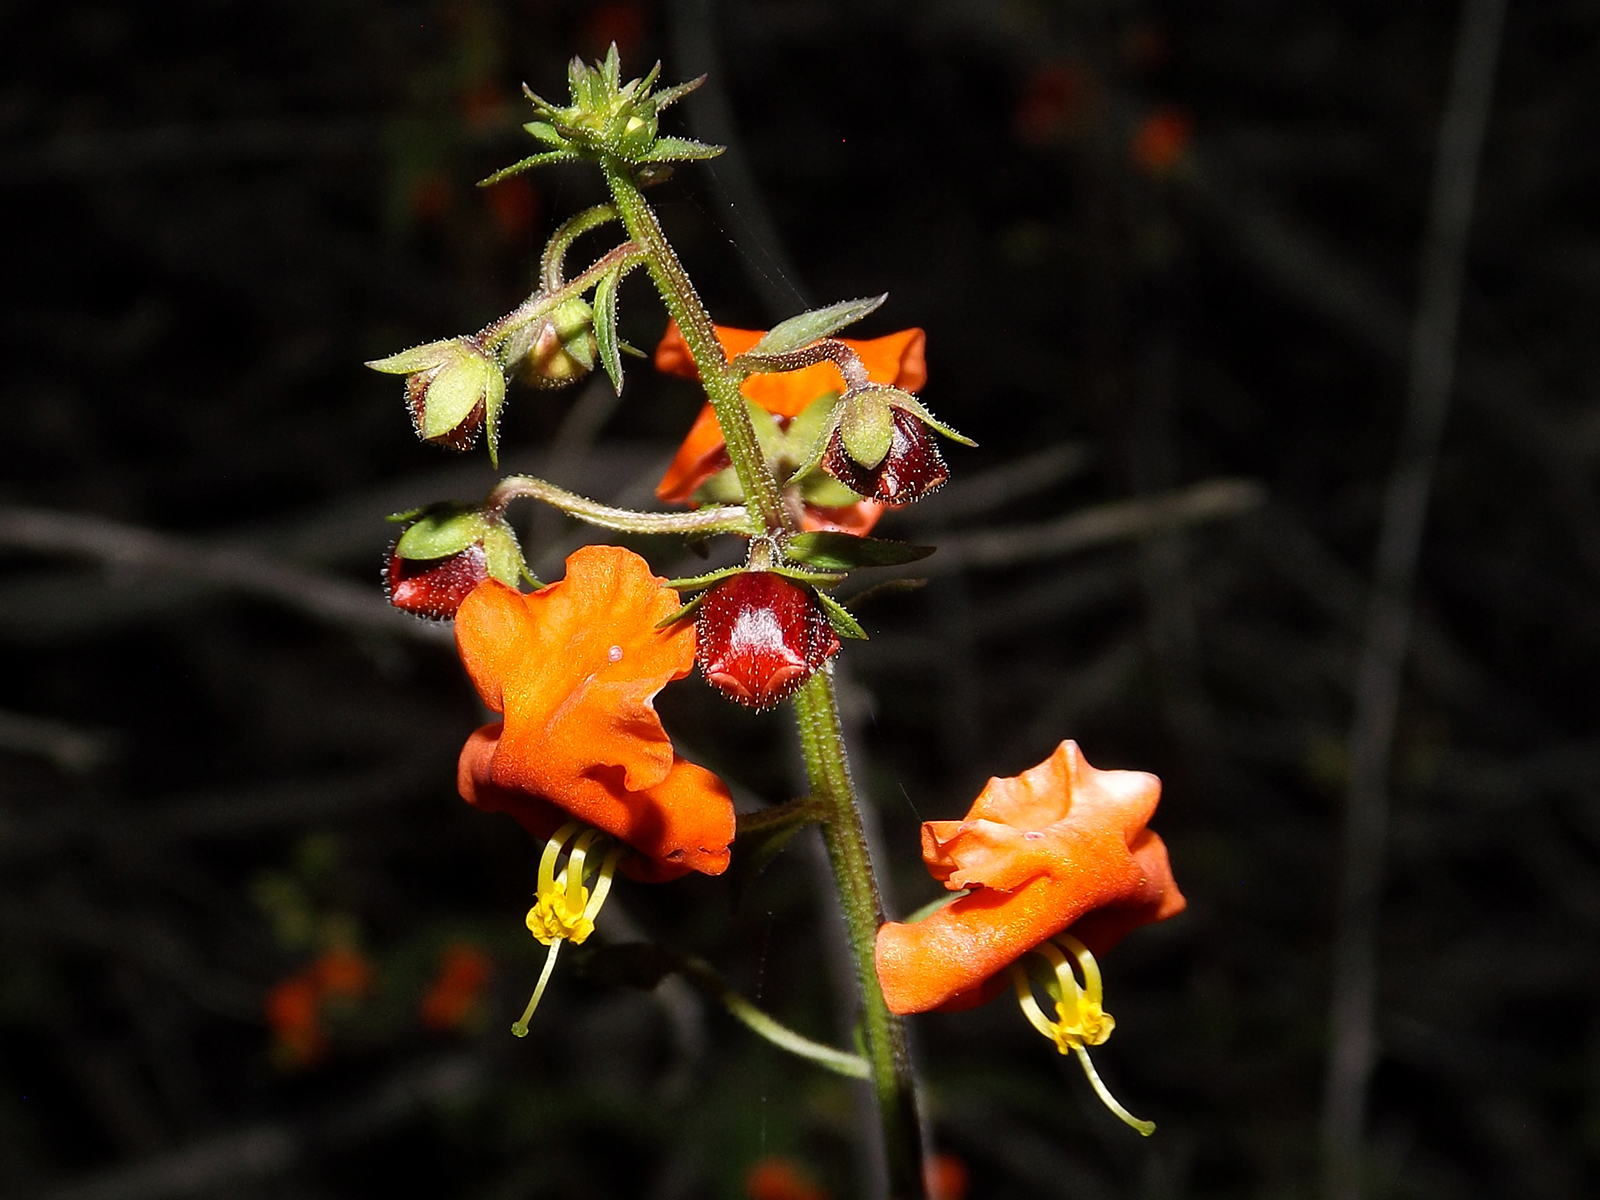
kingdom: Plantae
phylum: Tracheophyta
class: Magnoliopsida
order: Lamiales
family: Scrophulariaceae
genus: Alonsoa
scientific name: Alonsoa meridionalis
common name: Maskflower
